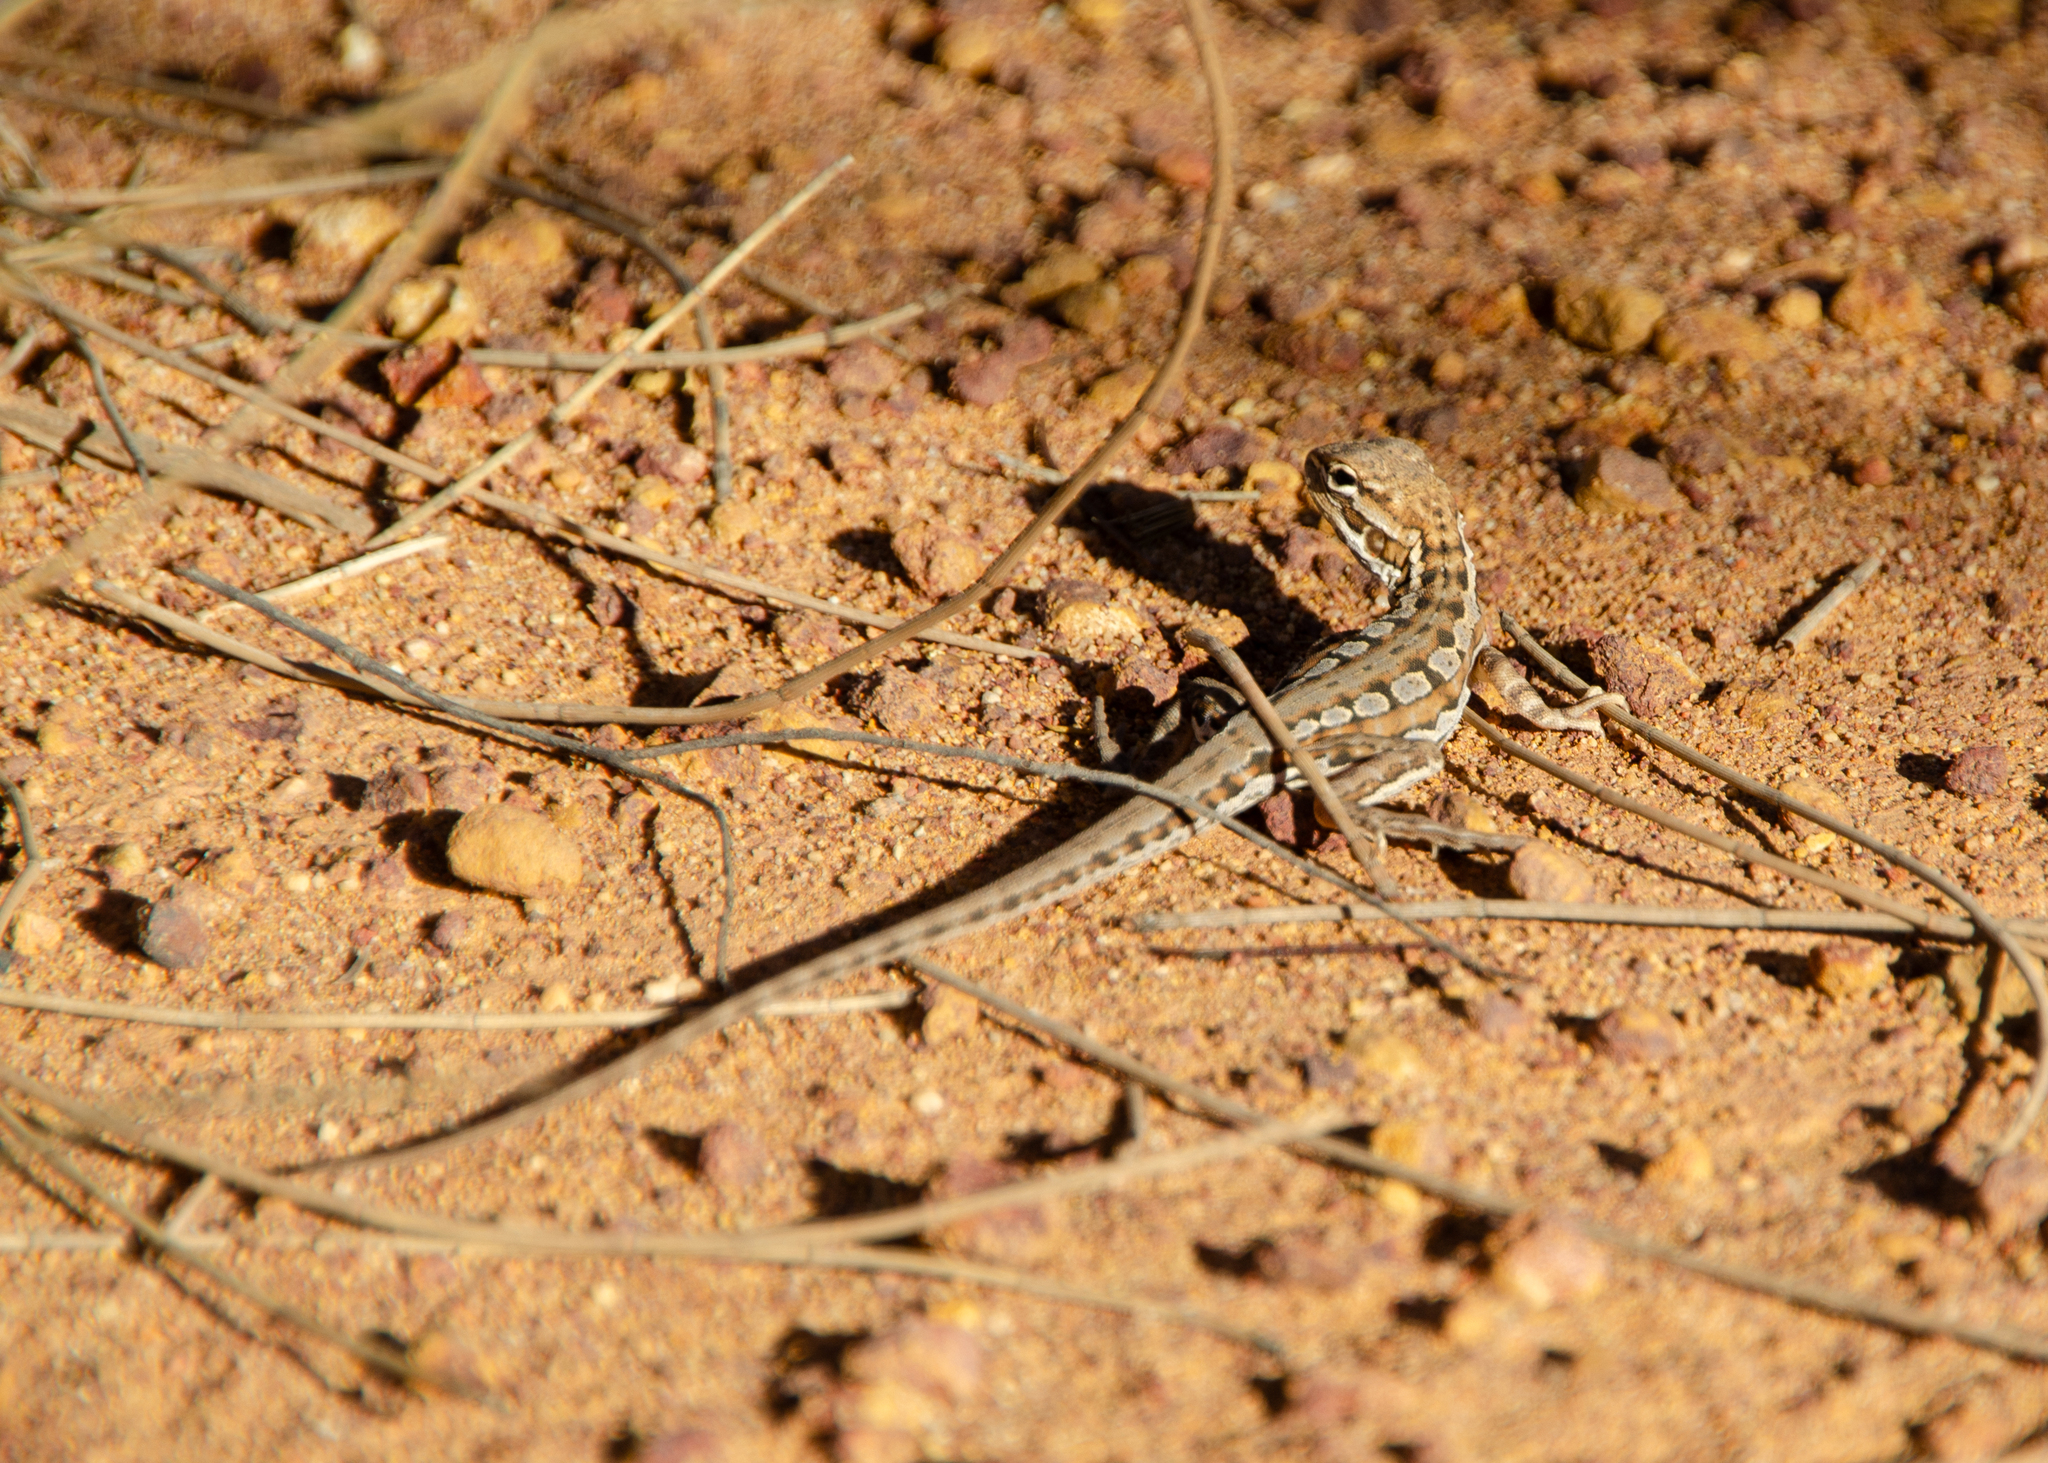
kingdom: Animalia
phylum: Chordata
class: Squamata
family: Agamidae
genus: Ctenophorus
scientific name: Ctenophorus scutulatus
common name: Lozenge-marked dragon
